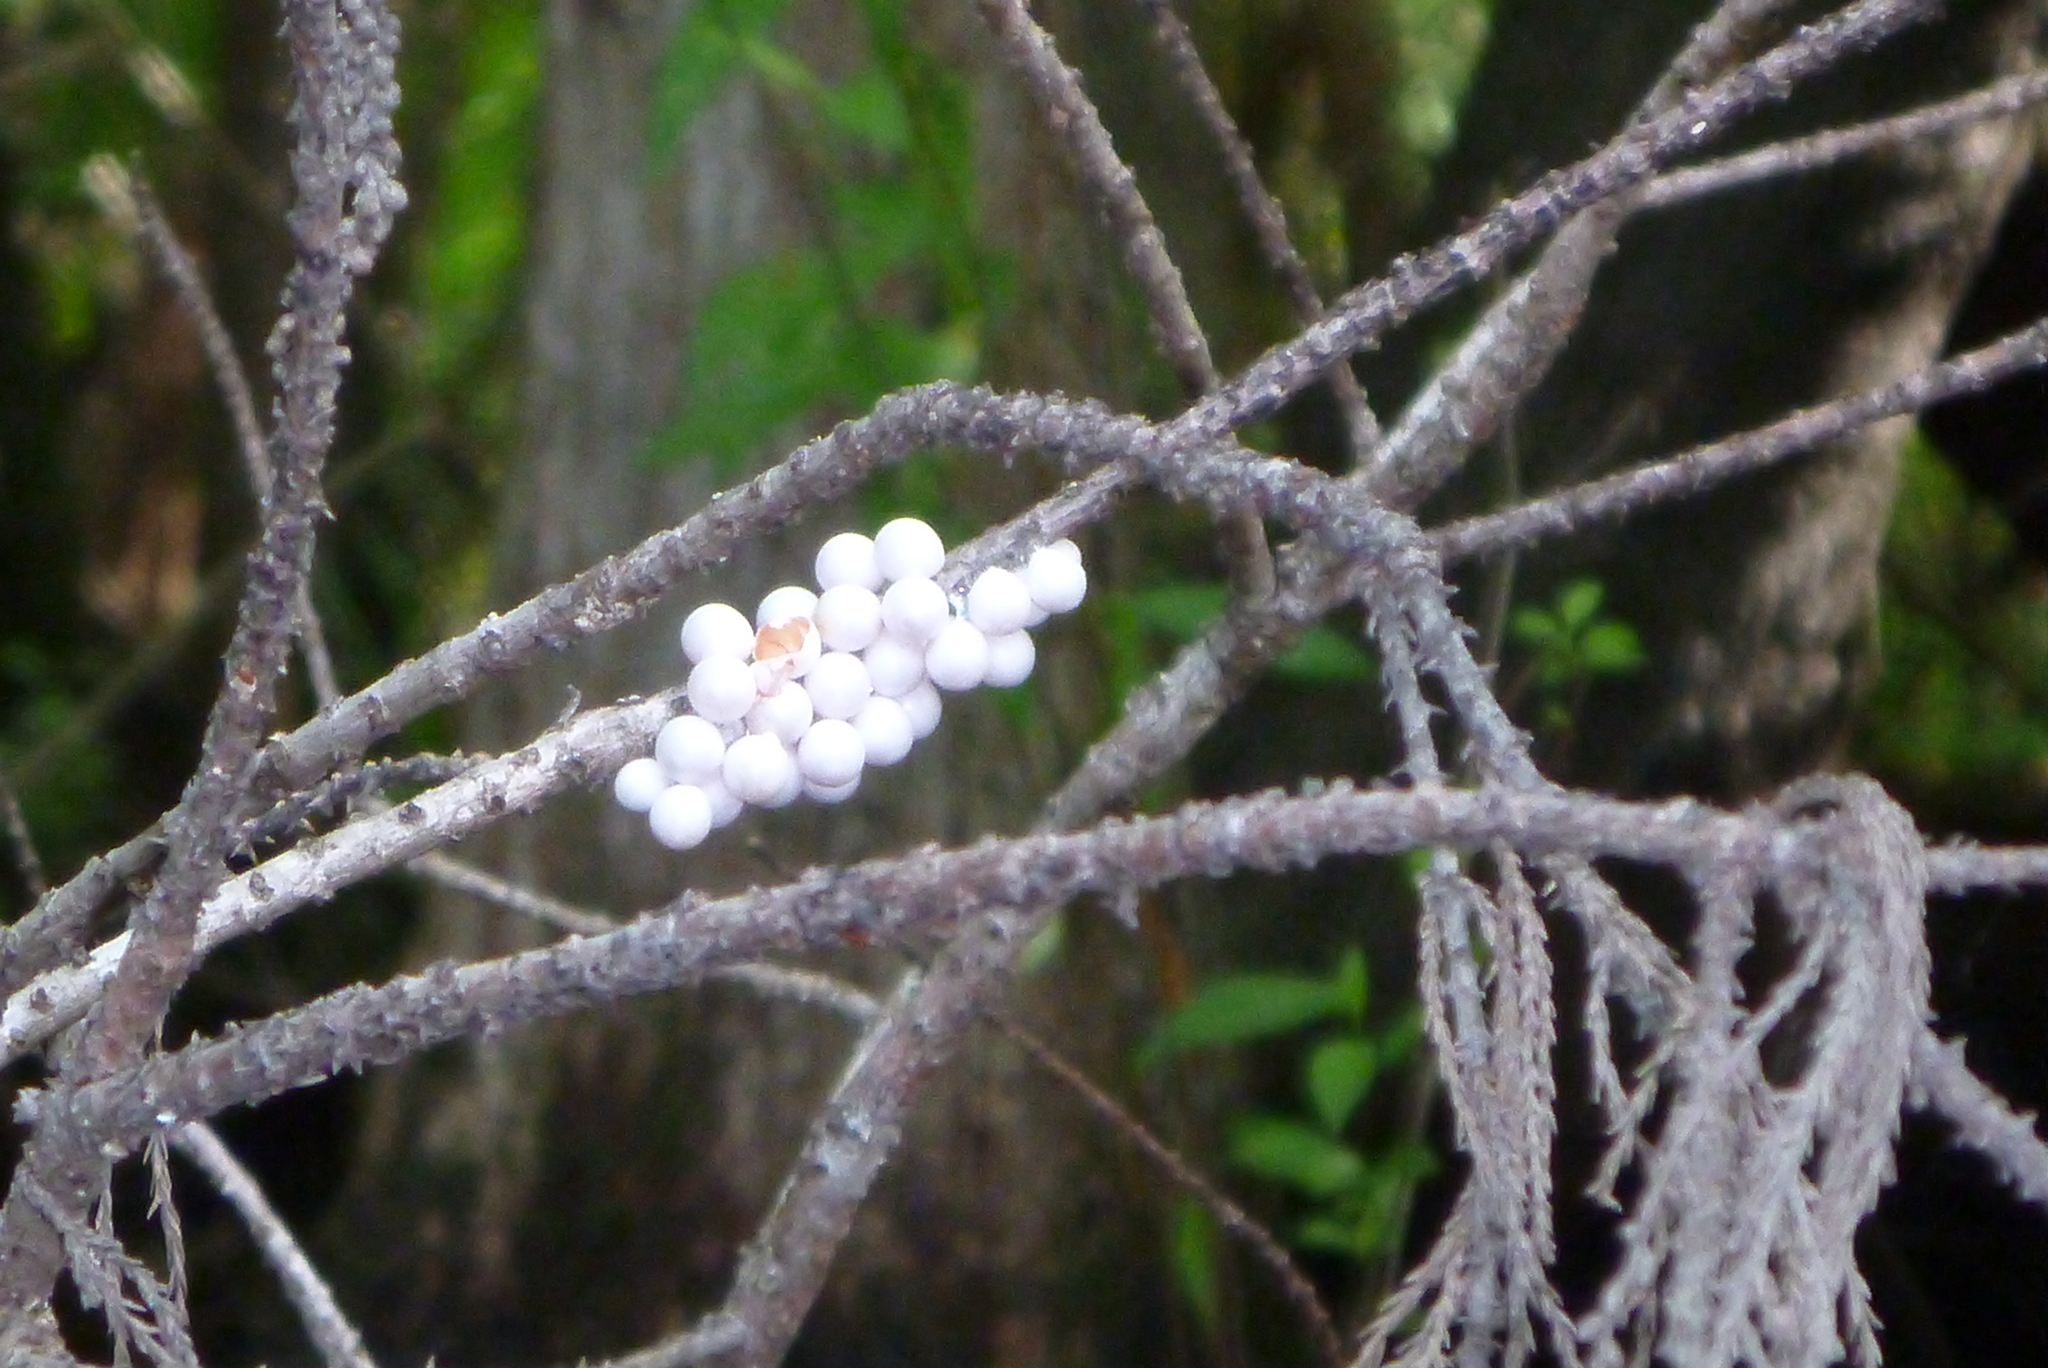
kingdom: Animalia
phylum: Mollusca
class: Gastropoda
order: Architaenioglossa
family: Ampullariidae
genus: Pomacea
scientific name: Pomacea paludosa
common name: Florida applesnail
